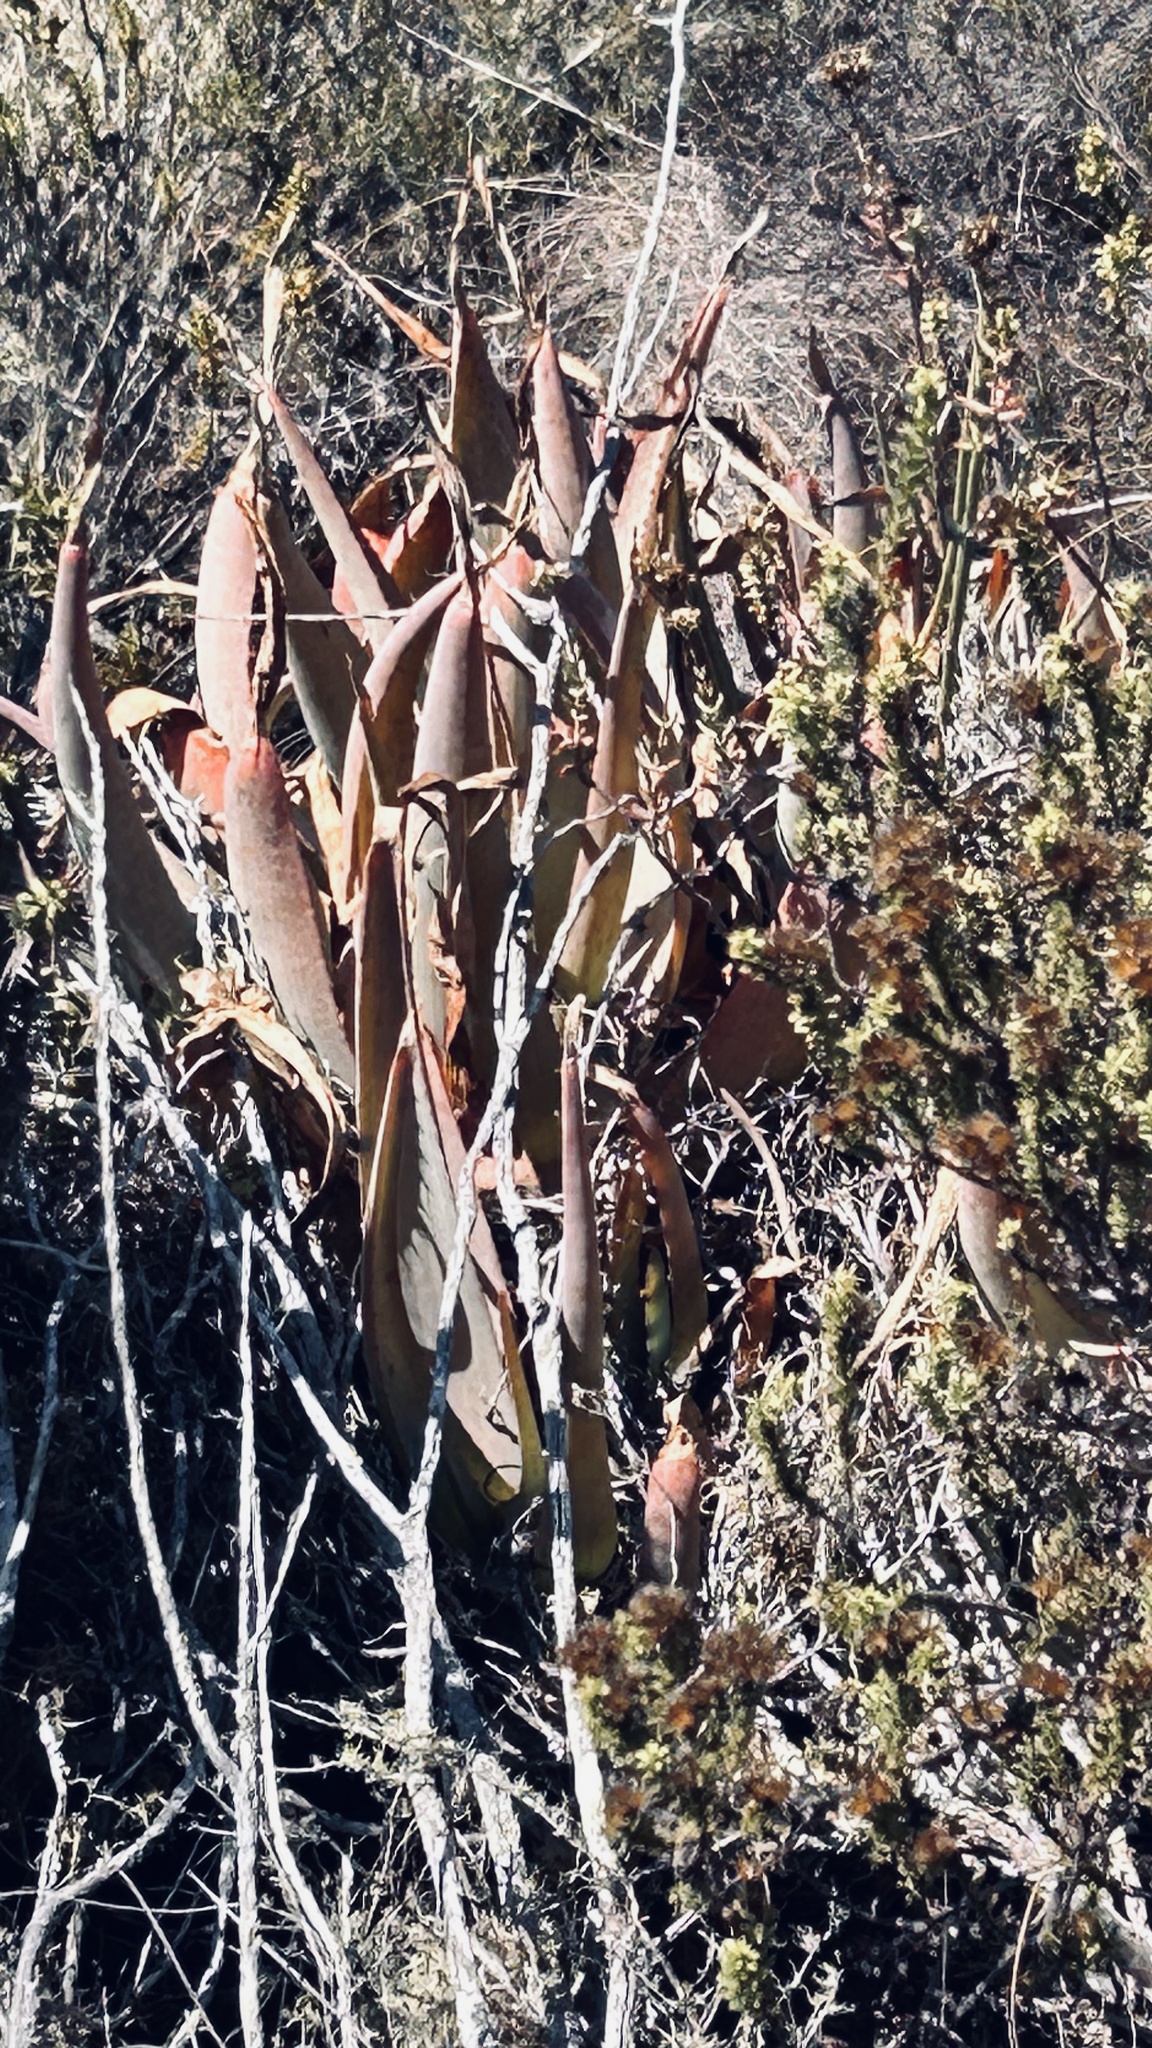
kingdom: Plantae
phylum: Tracheophyta
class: Liliopsida
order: Asparagales
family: Asphodelaceae
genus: Aloe
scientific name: Aloe glauca
